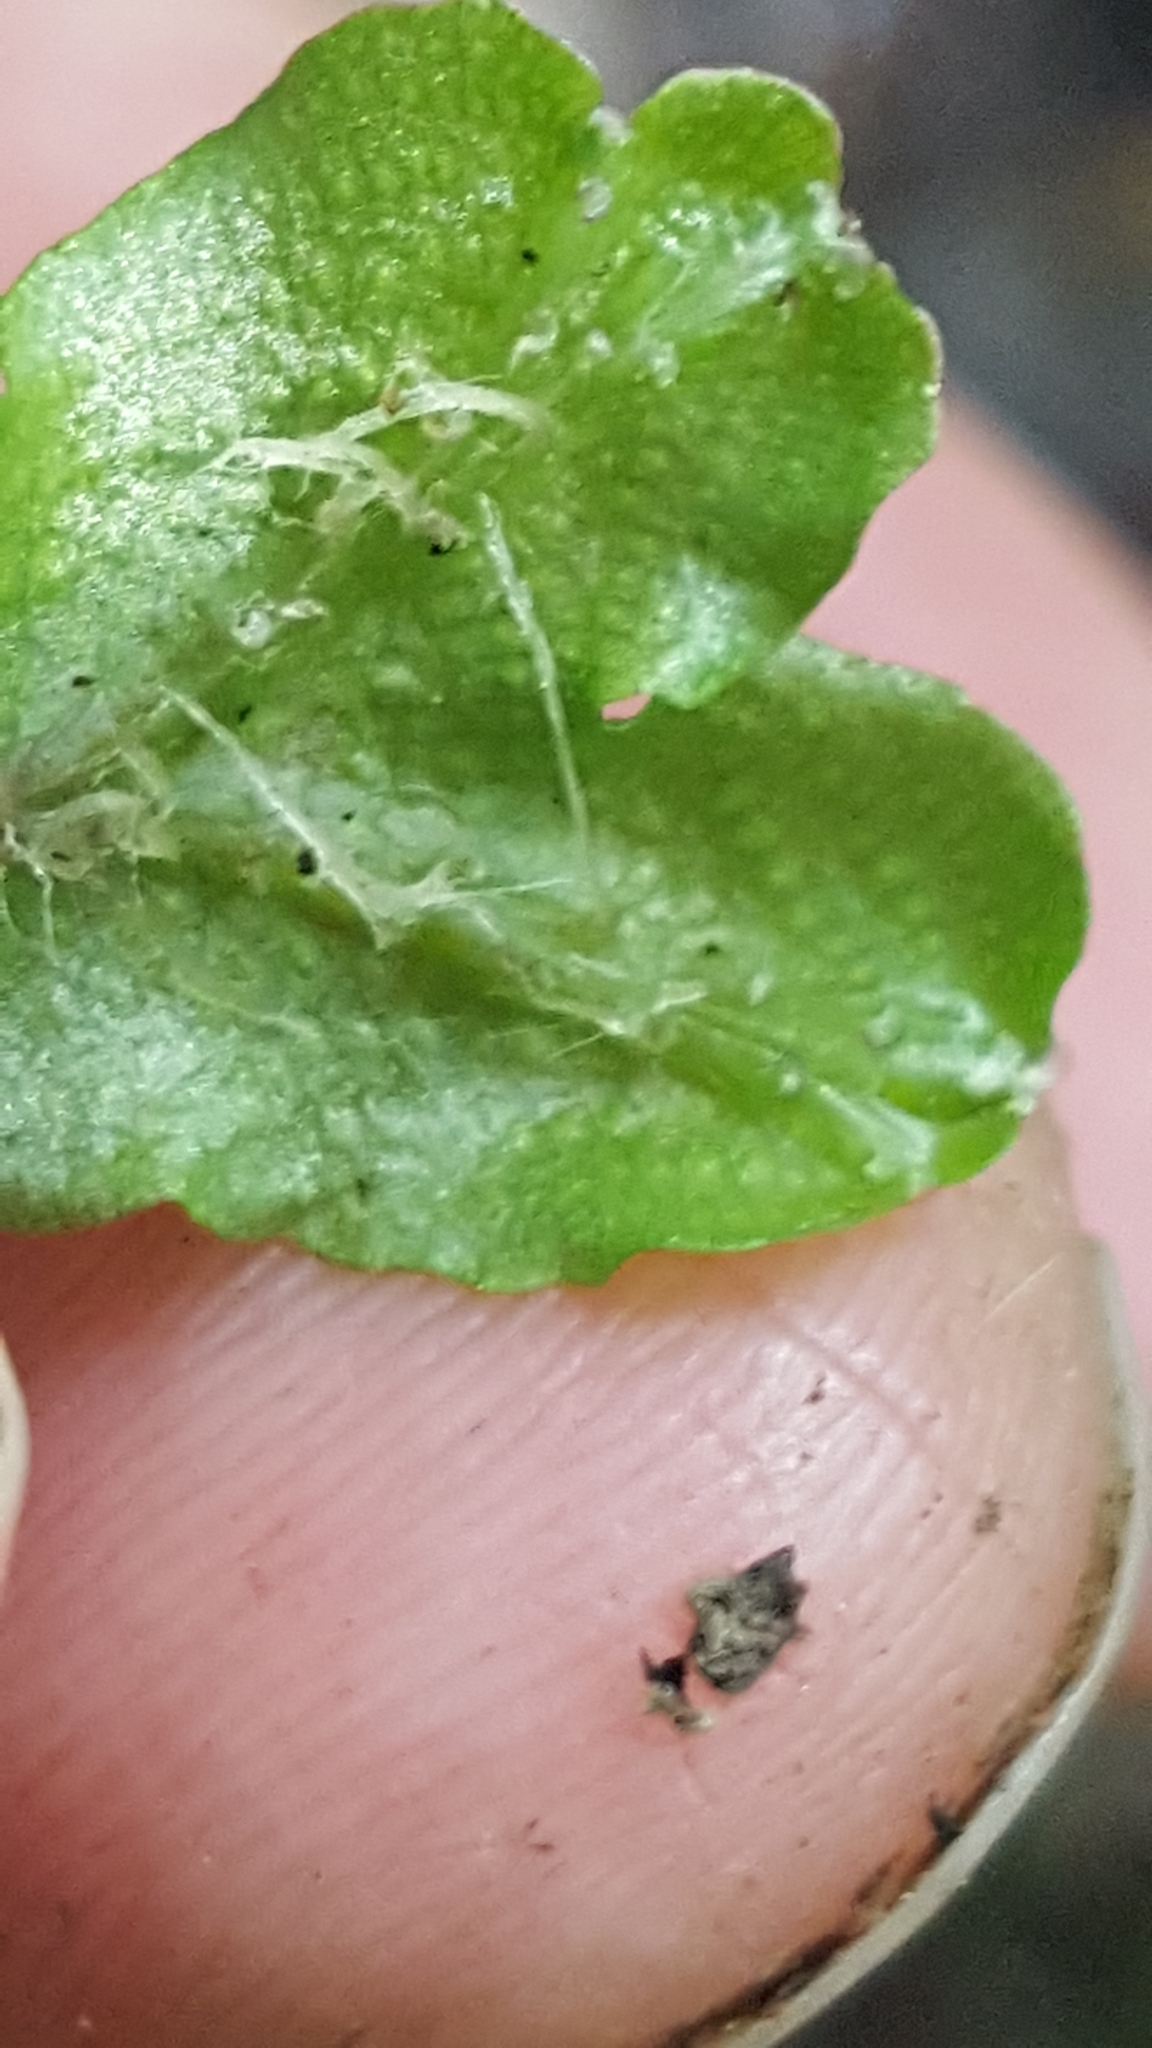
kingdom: Plantae
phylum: Marchantiophyta
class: Marchantiopsida
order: Marchantiales
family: Conocephalaceae
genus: Conocephalum
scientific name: Conocephalum salebrosum
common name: Cat-tongue liverwort
